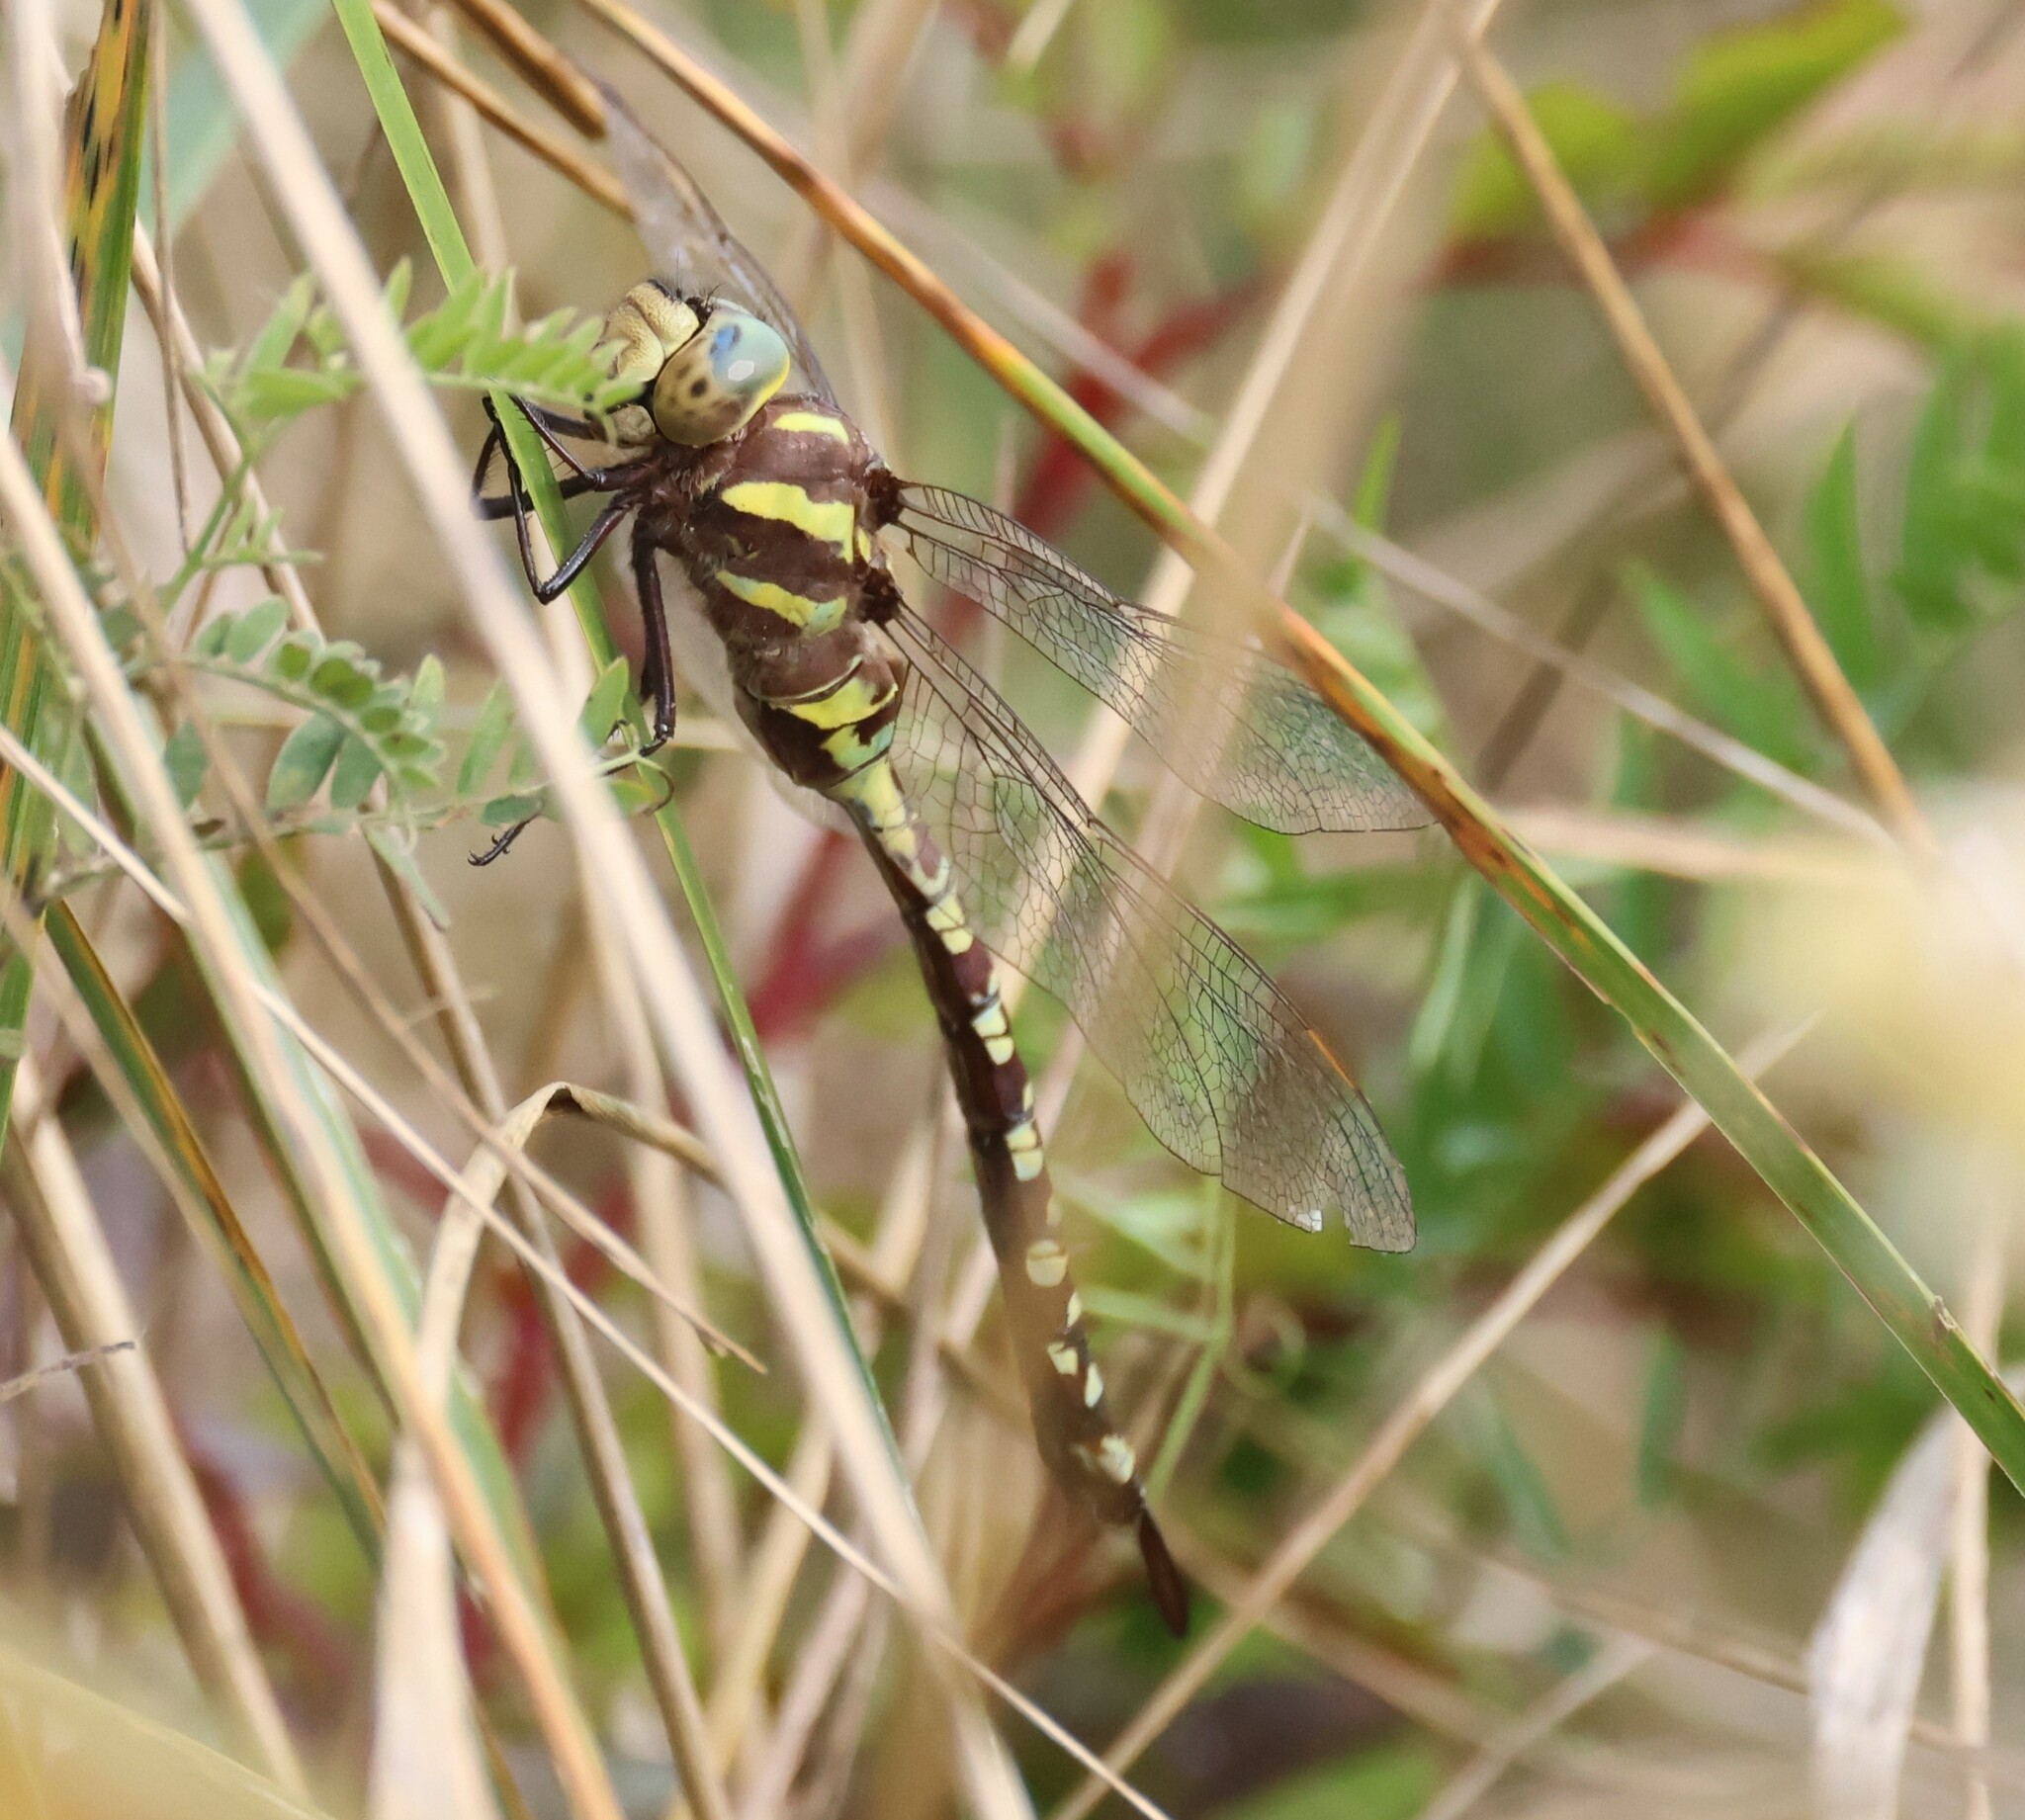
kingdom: Animalia
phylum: Arthropoda
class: Insecta
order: Odonata
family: Aeshnidae
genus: Aeshna
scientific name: Aeshna constricta
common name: Lance-tipped darner
